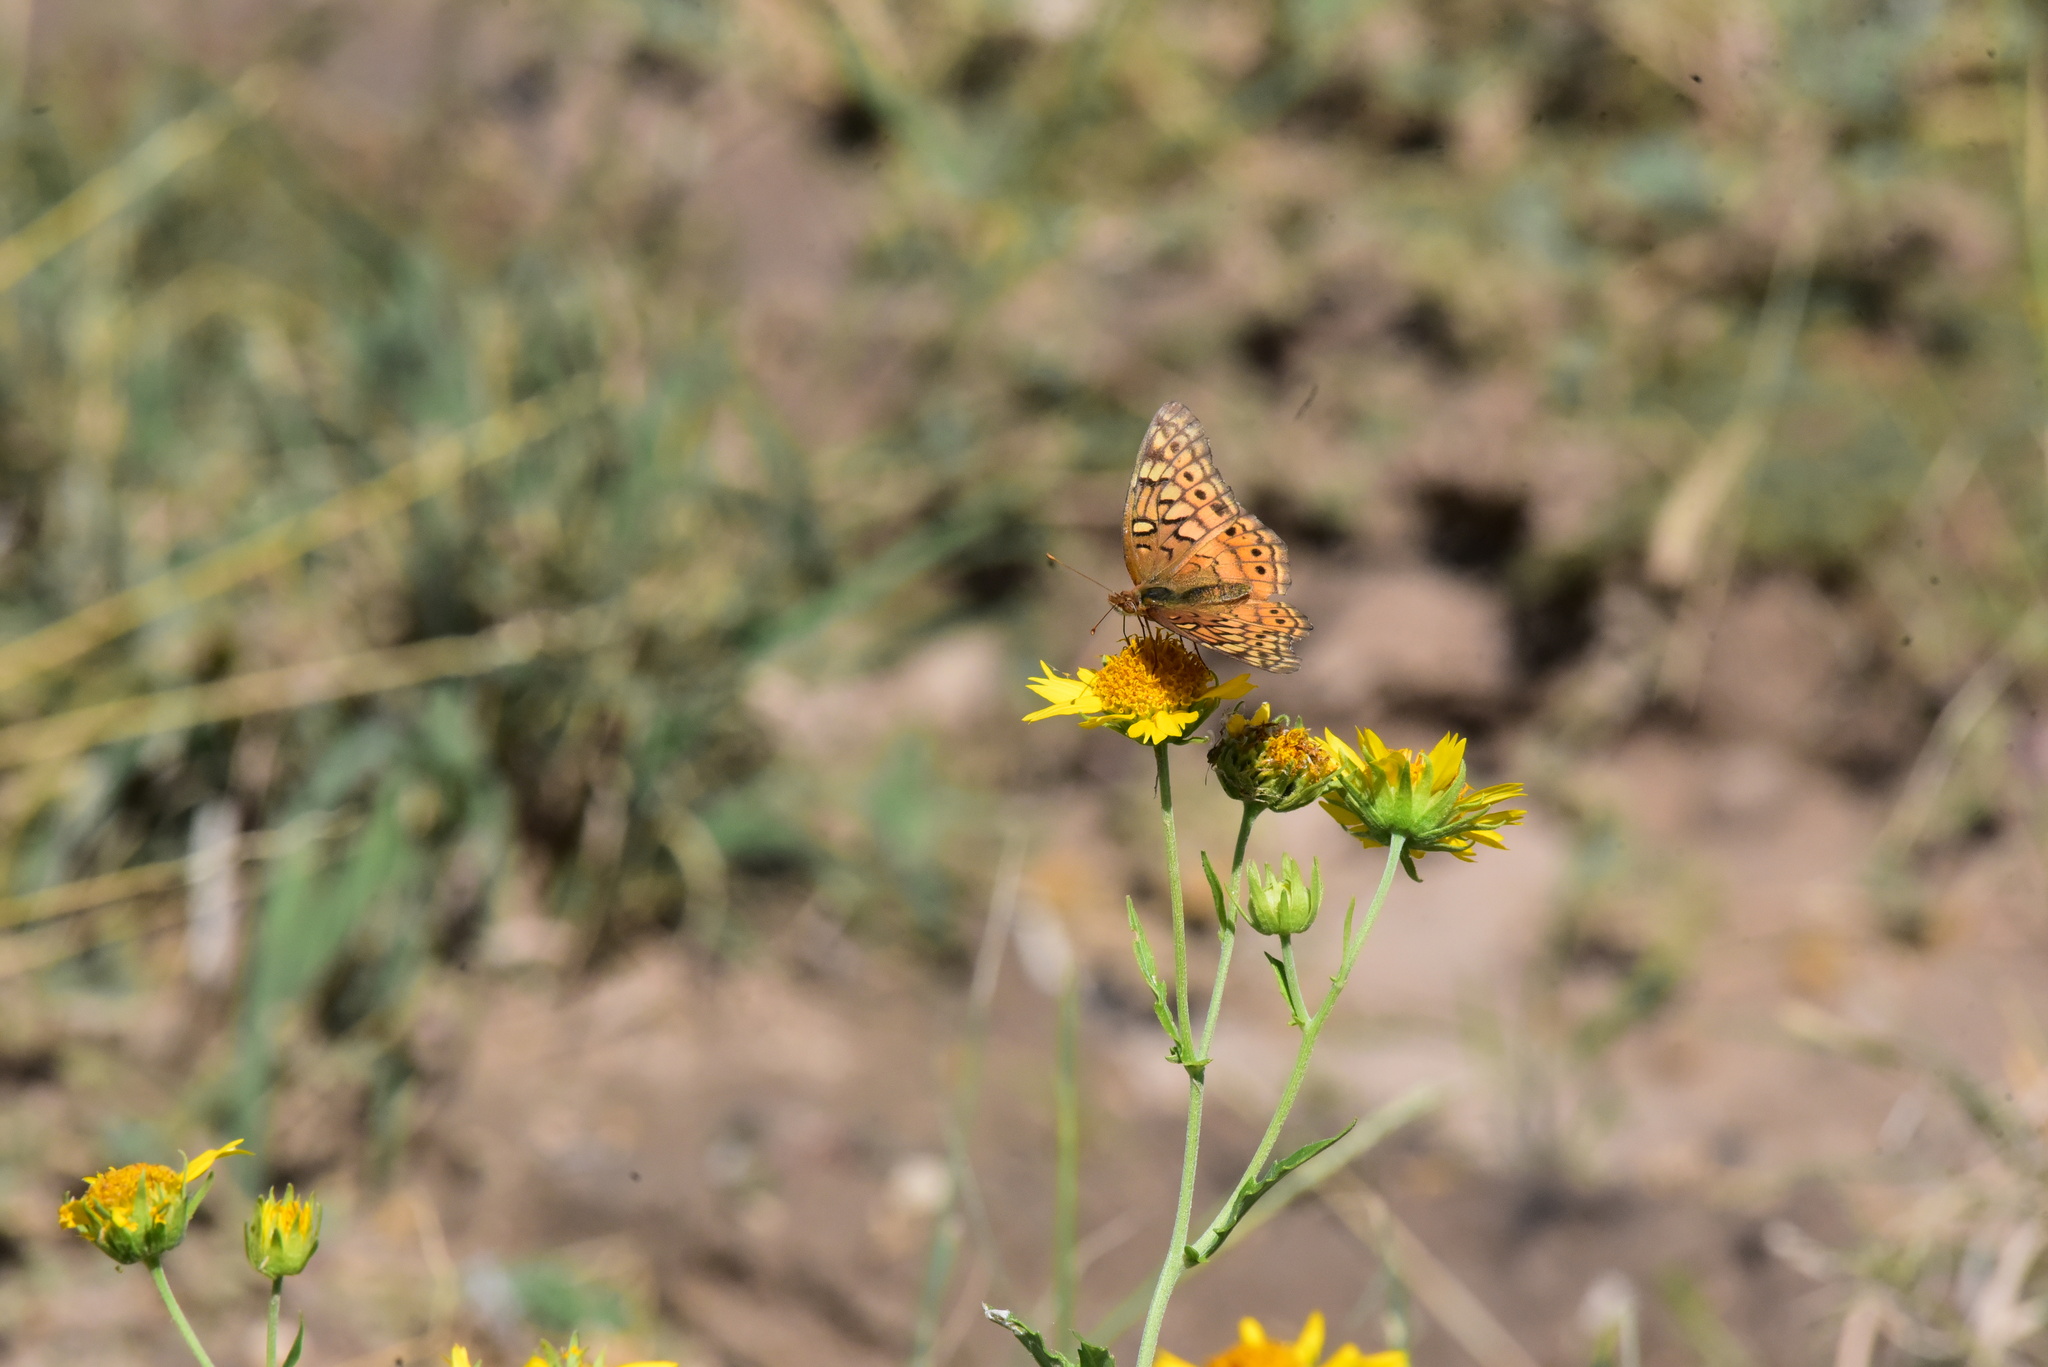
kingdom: Animalia
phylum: Arthropoda
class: Insecta
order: Lepidoptera
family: Nymphalidae
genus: Euptoieta
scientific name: Euptoieta claudia
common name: Variegated fritillary
